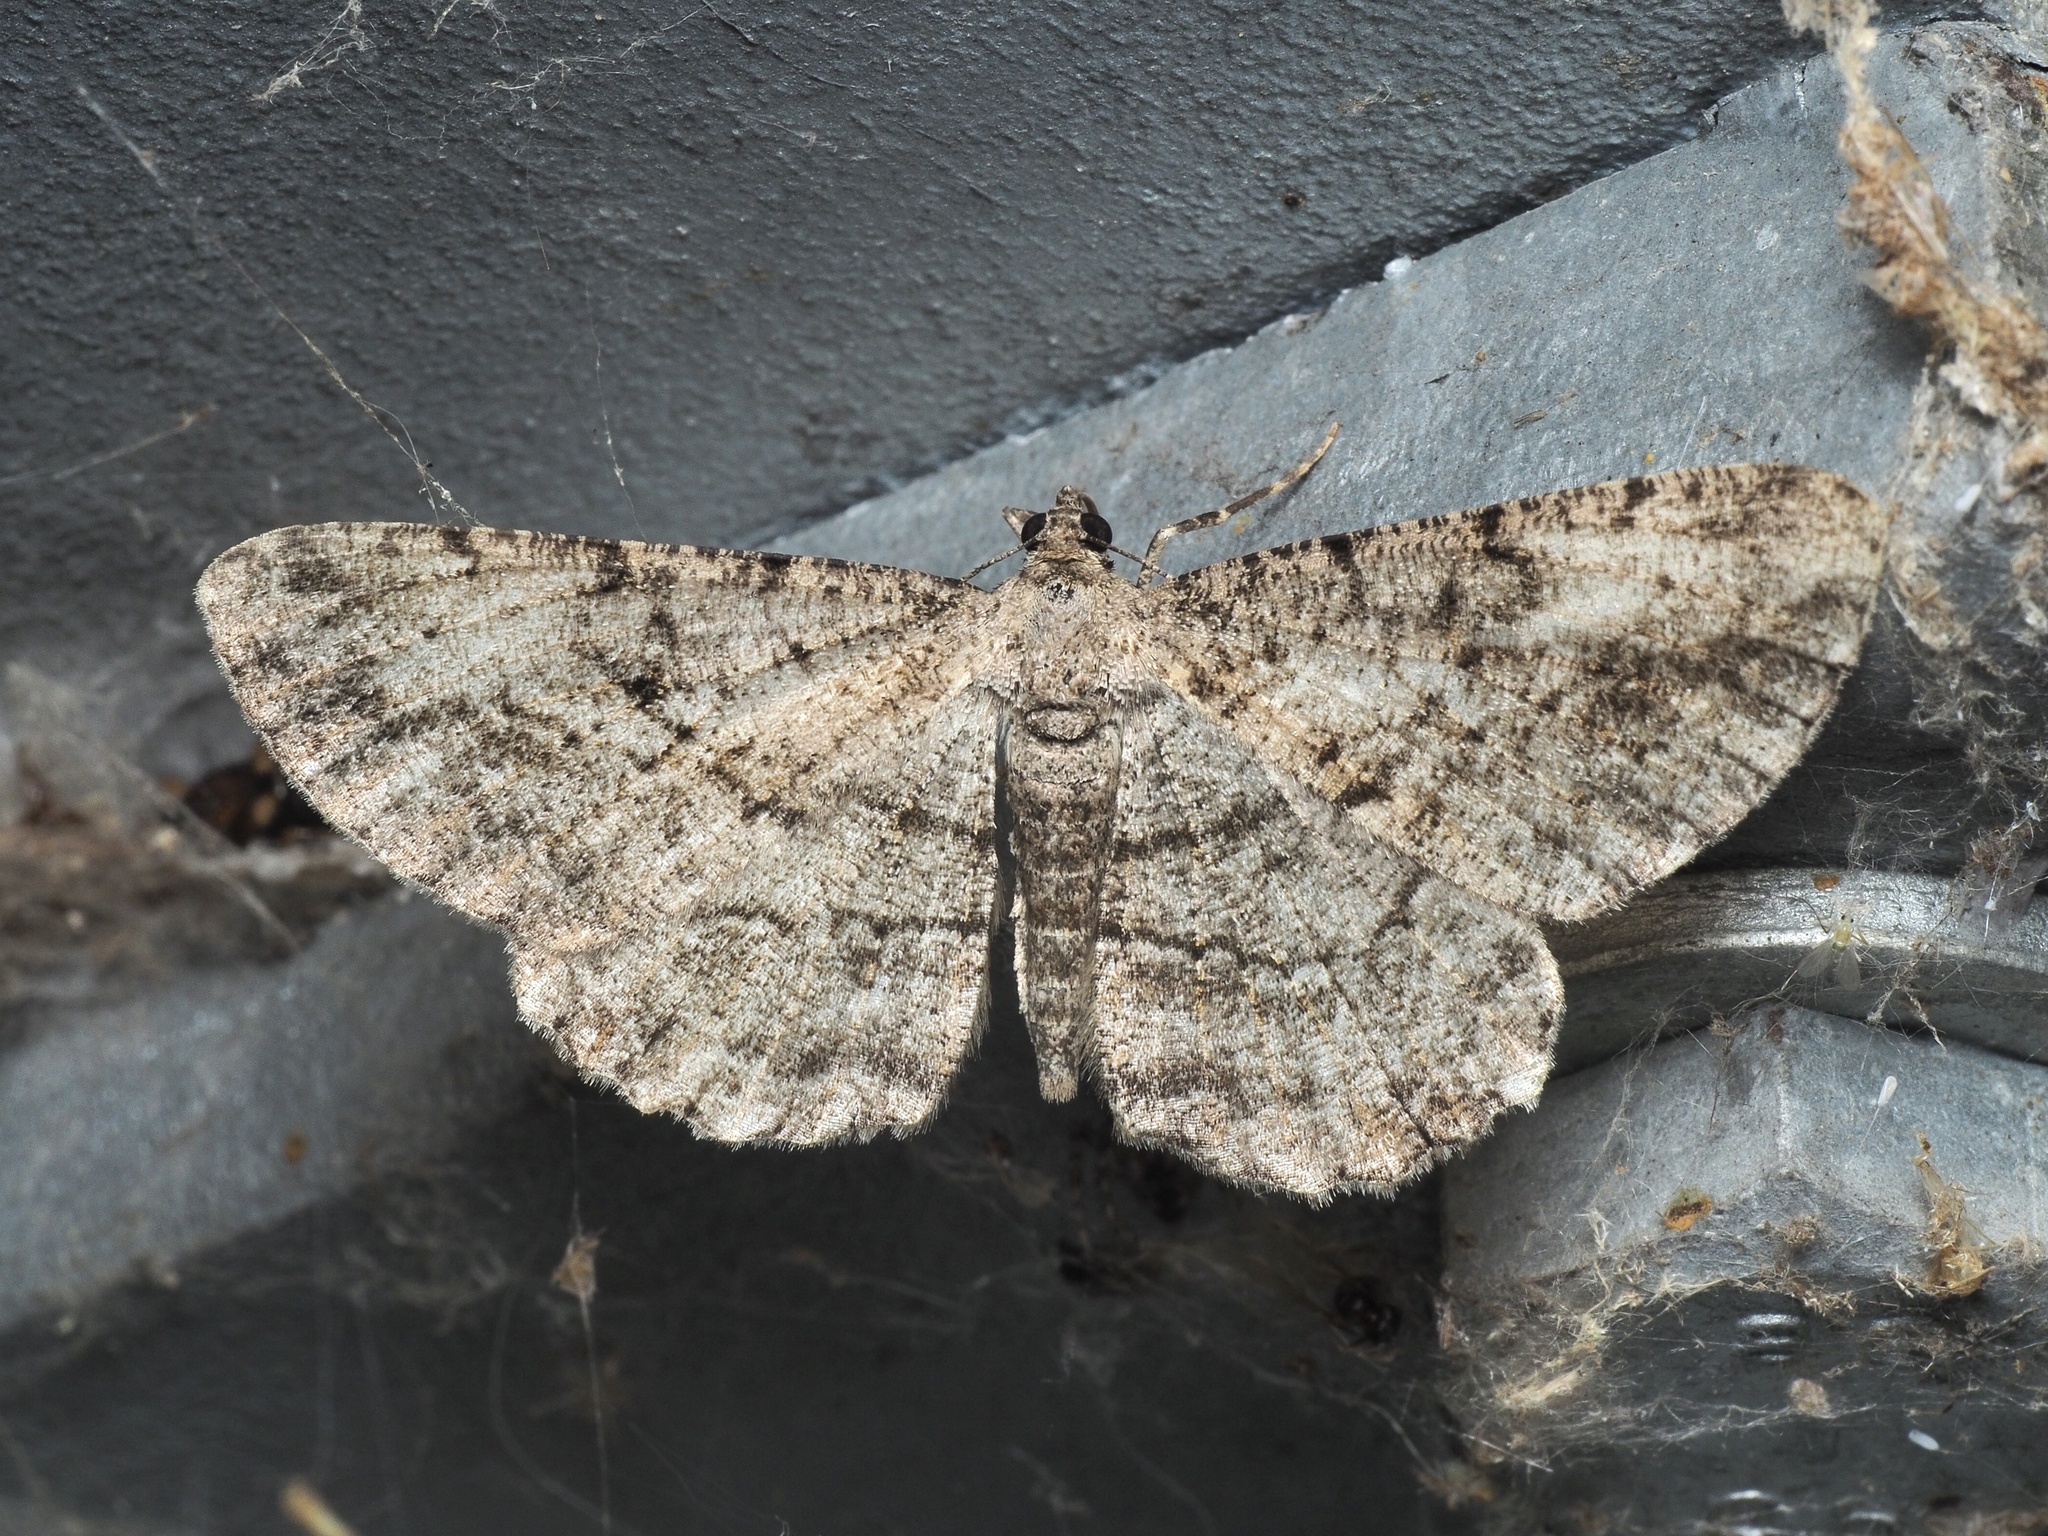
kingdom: Animalia
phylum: Arthropoda
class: Insecta
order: Lepidoptera
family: Geometridae
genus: Peribatodes
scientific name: Peribatodes rhomboidaria
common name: Willow beauty
